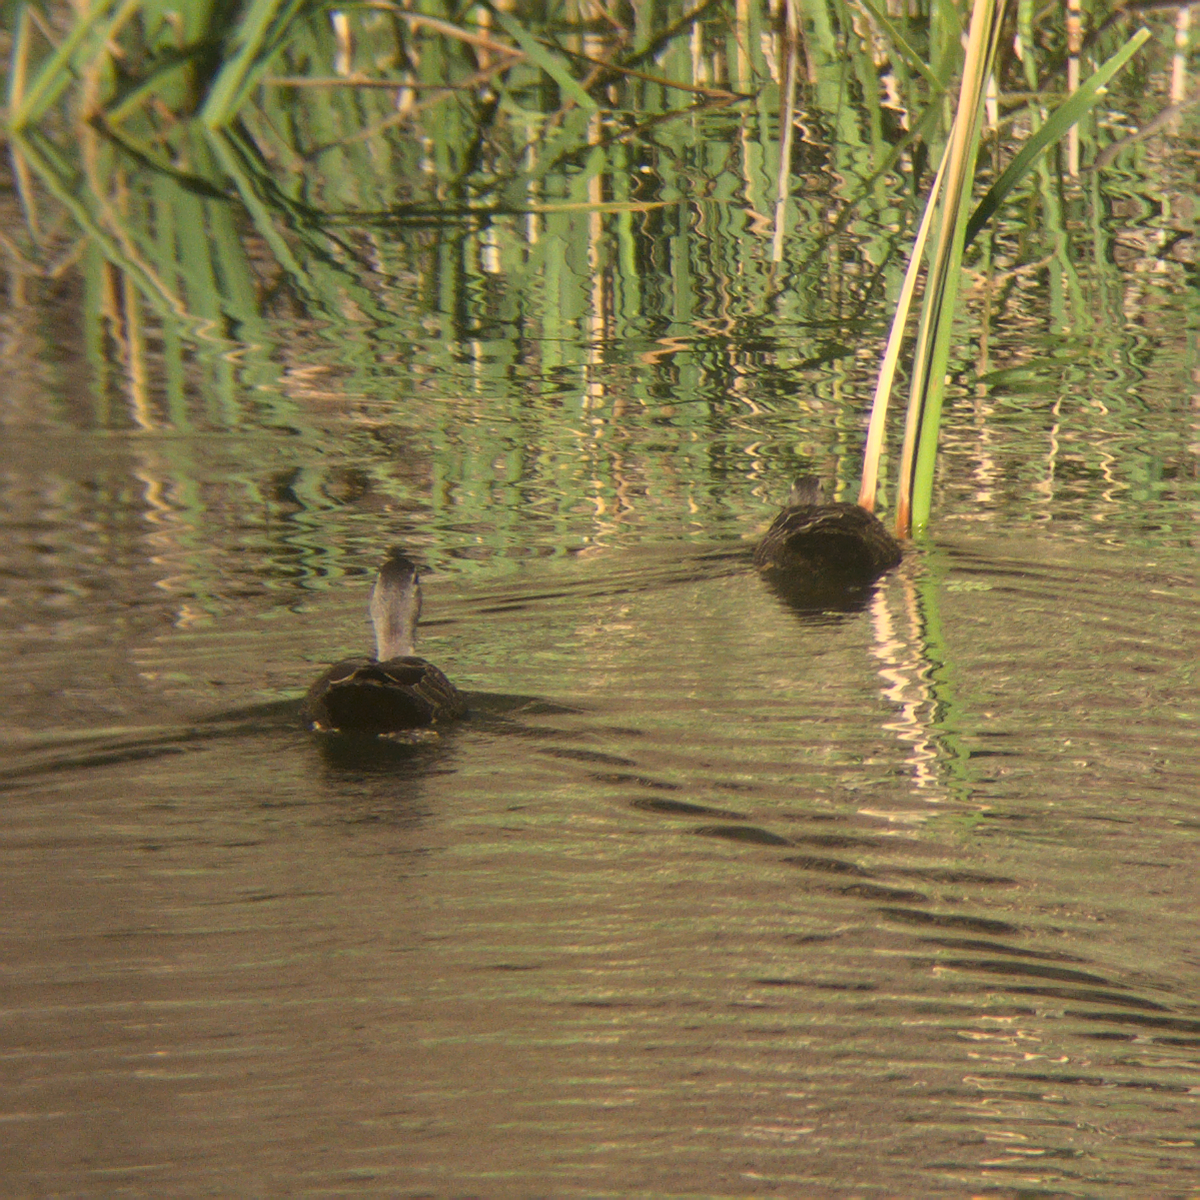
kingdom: Animalia
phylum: Chordata
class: Aves
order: Anseriformes
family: Anatidae
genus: Anas
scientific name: Anas superciliosa
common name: Pacific black duck
